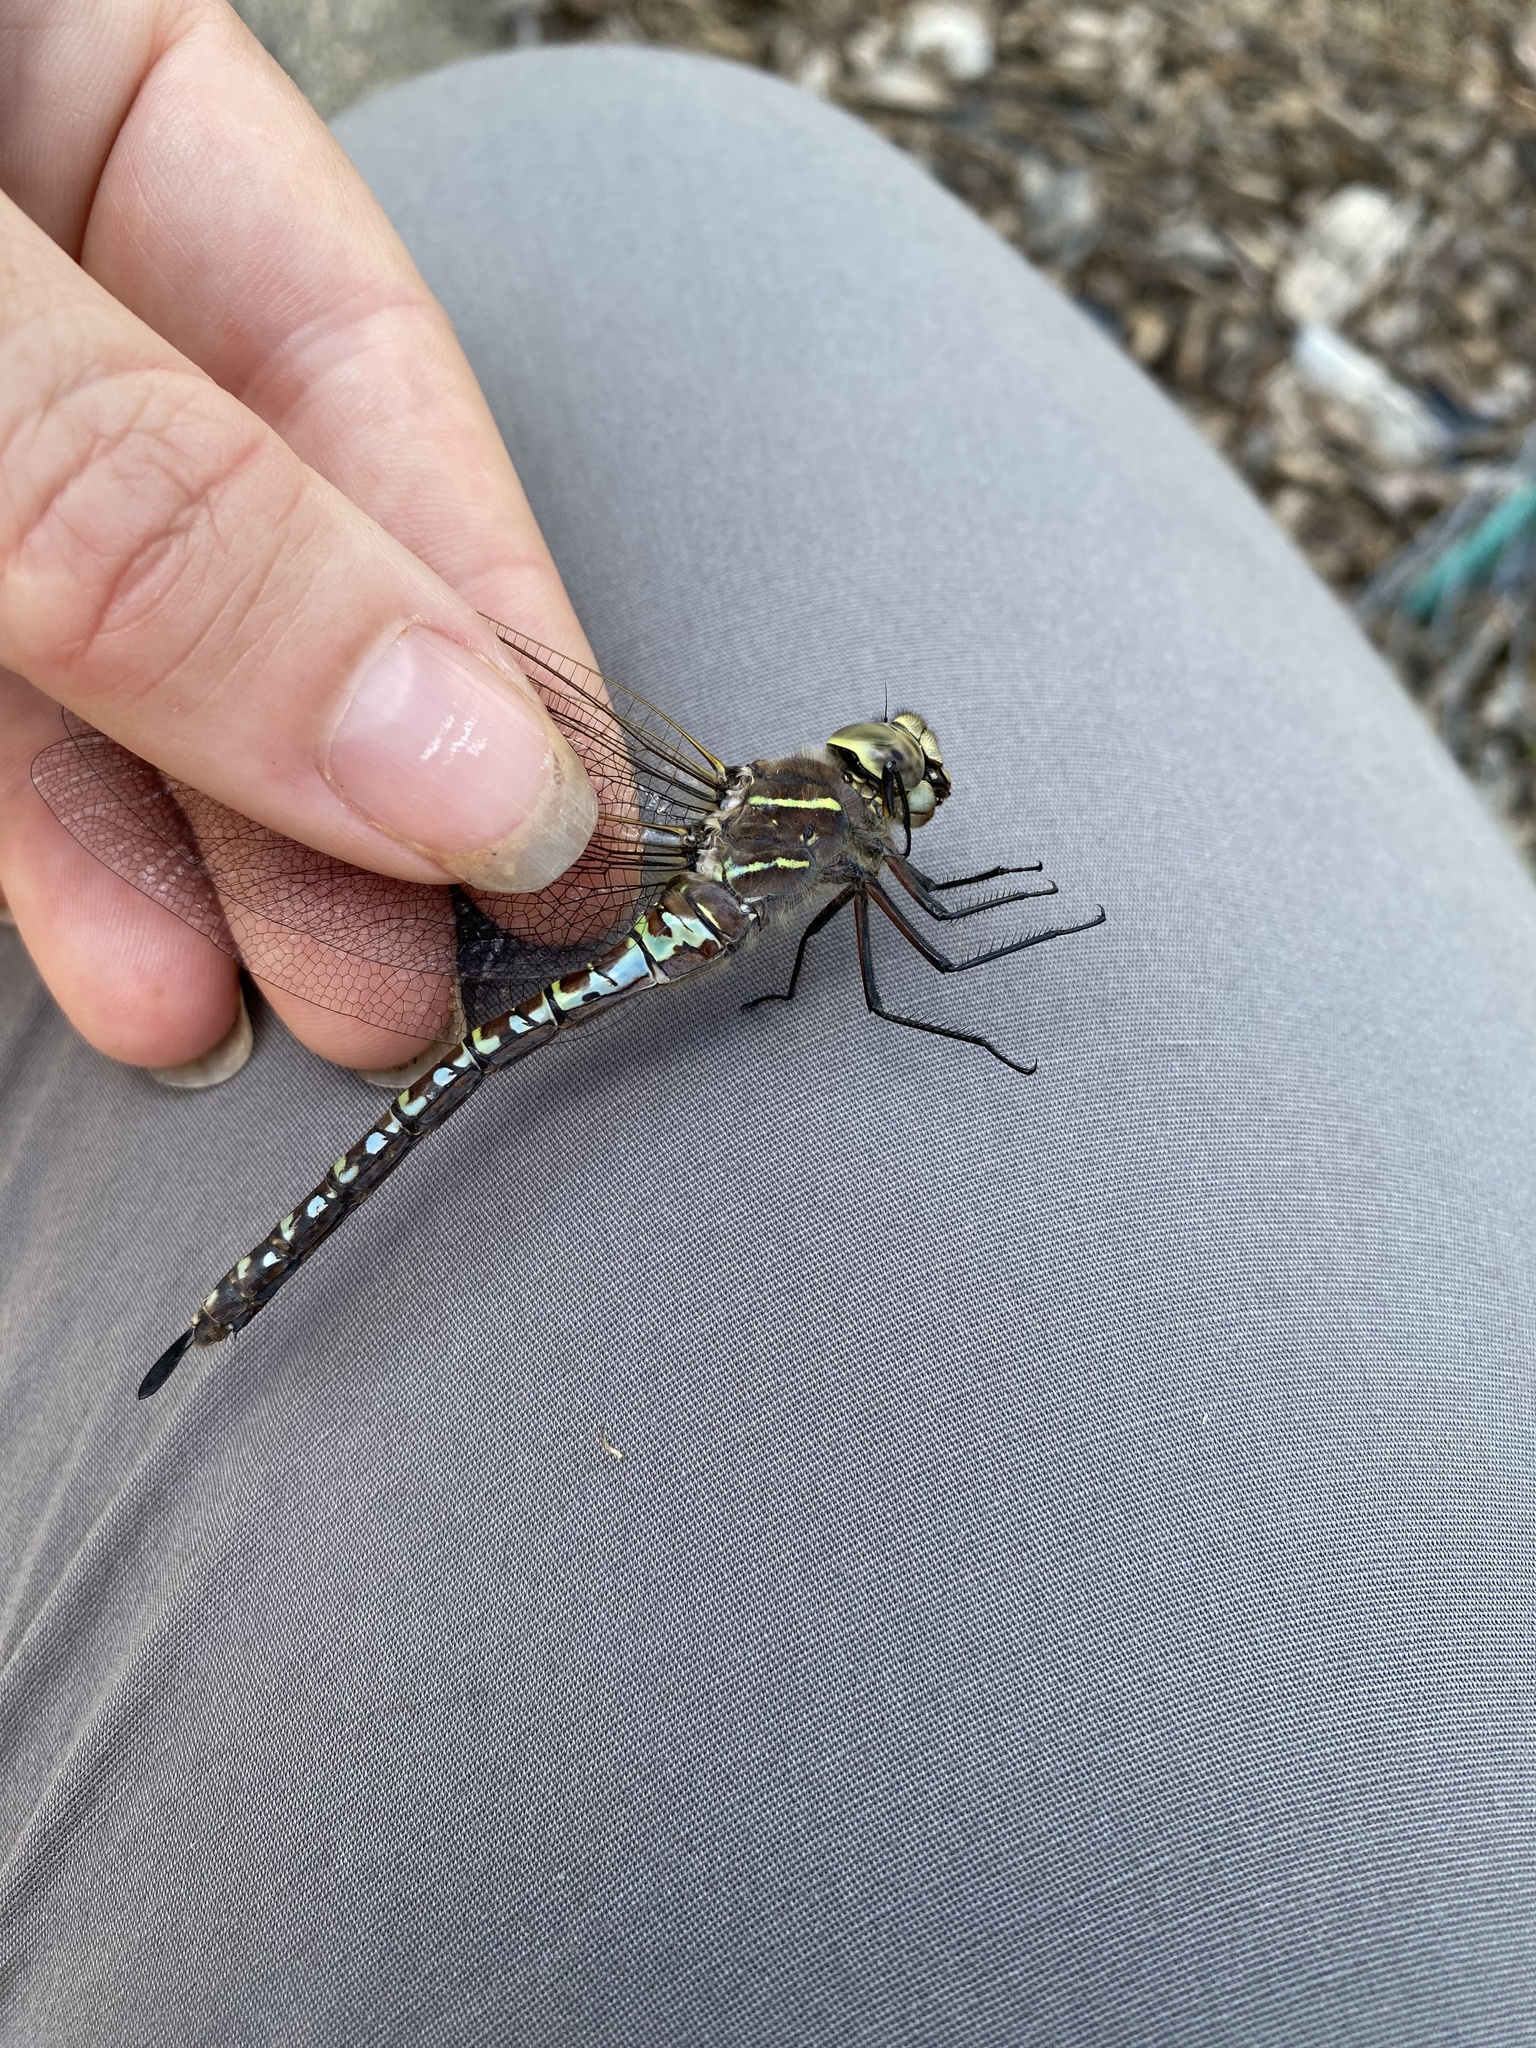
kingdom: Animalia
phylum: Arthropoda
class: Insecta
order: Odonata
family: Aeshnidae
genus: Aeshna
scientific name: Aeshna interrupta
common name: Variable darner
